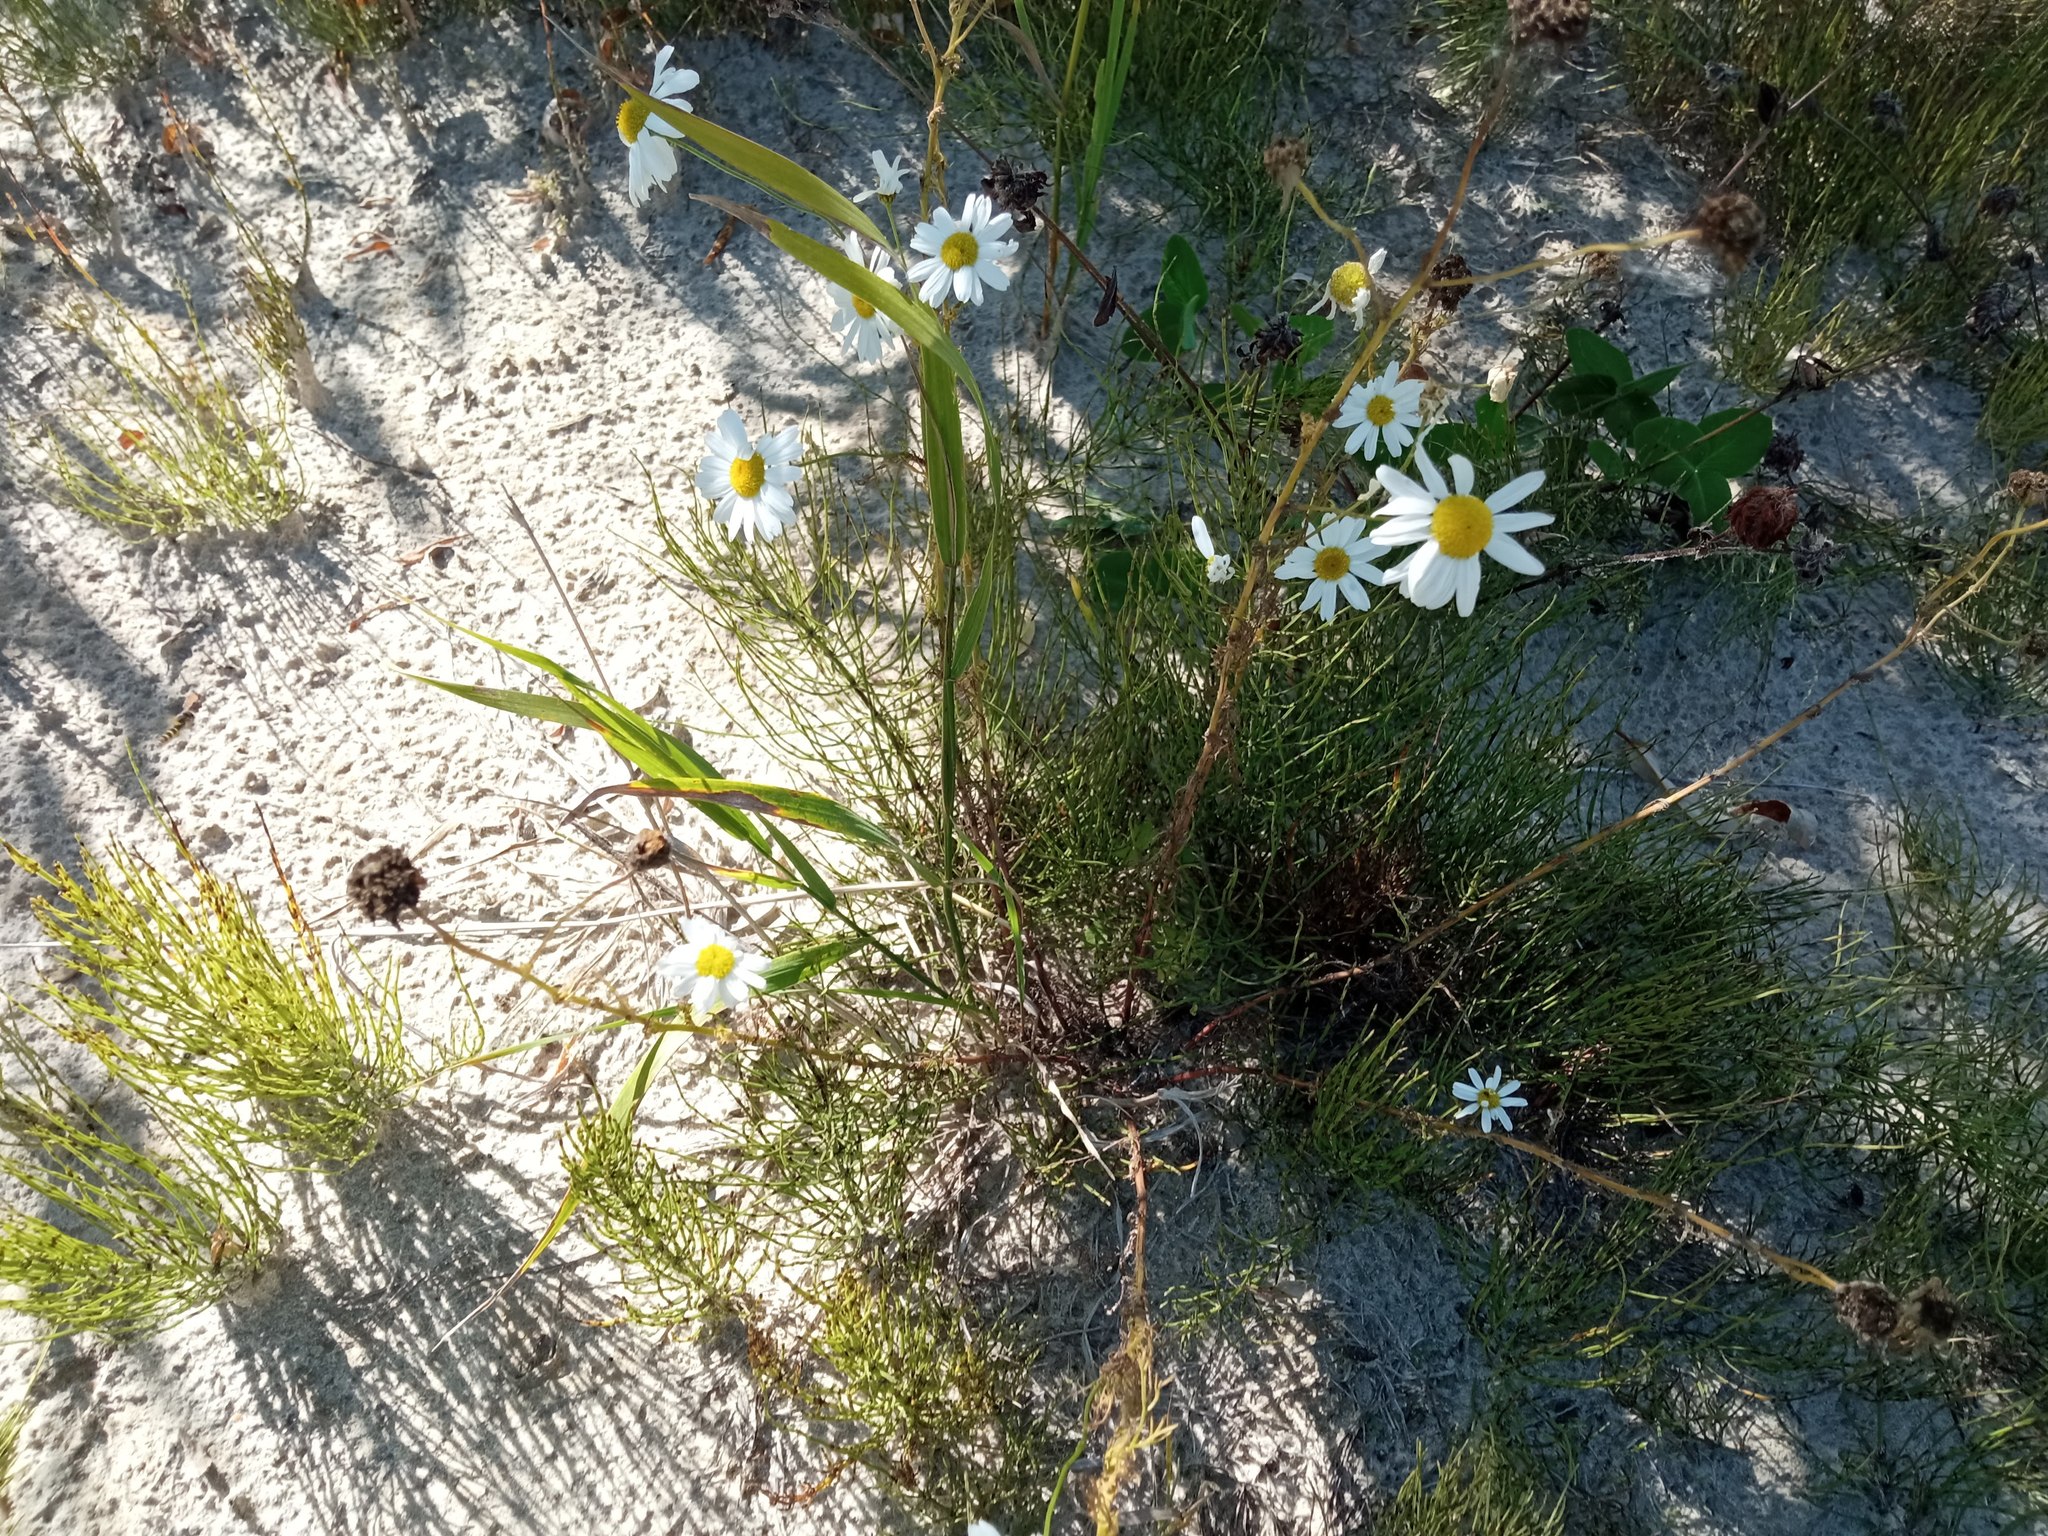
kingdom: Plantae
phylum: Tracheophyta
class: Magnoliopsida
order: Asterales
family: Asteraceae
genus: Tripleurospermum
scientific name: Tripleurospermum inodorum
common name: Scentless mayweed
